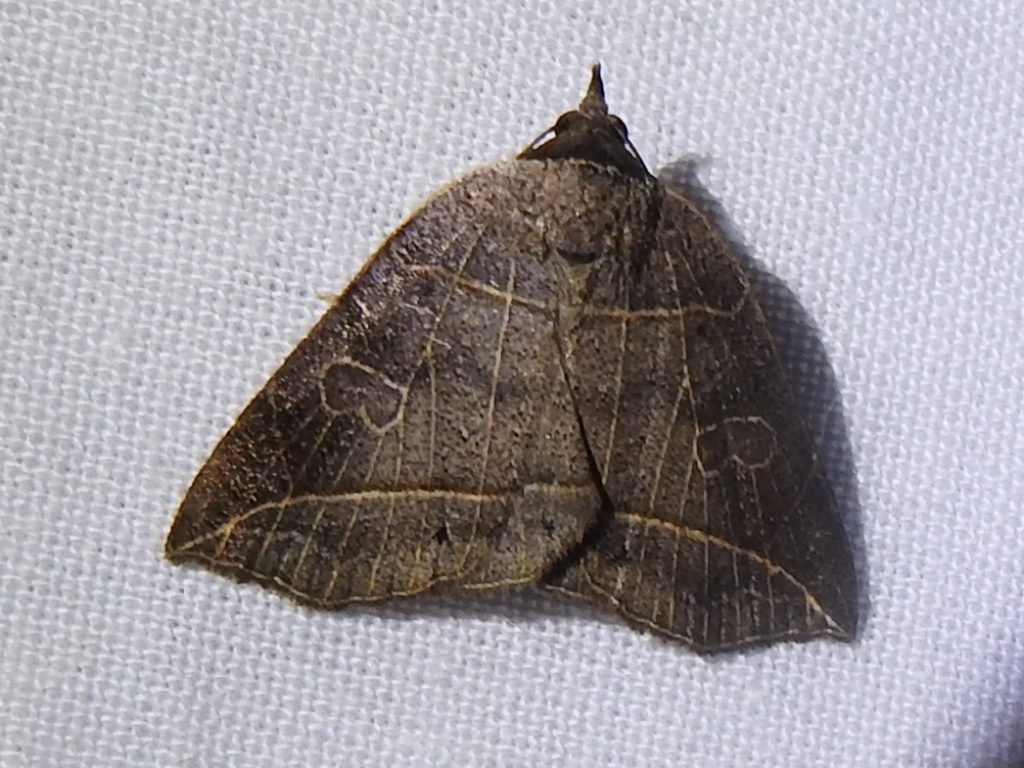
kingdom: Animalia
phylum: Arthropoda
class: Insecta
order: Lepidoptera
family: Erebidae
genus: Isogona
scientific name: Isogona tenuis
